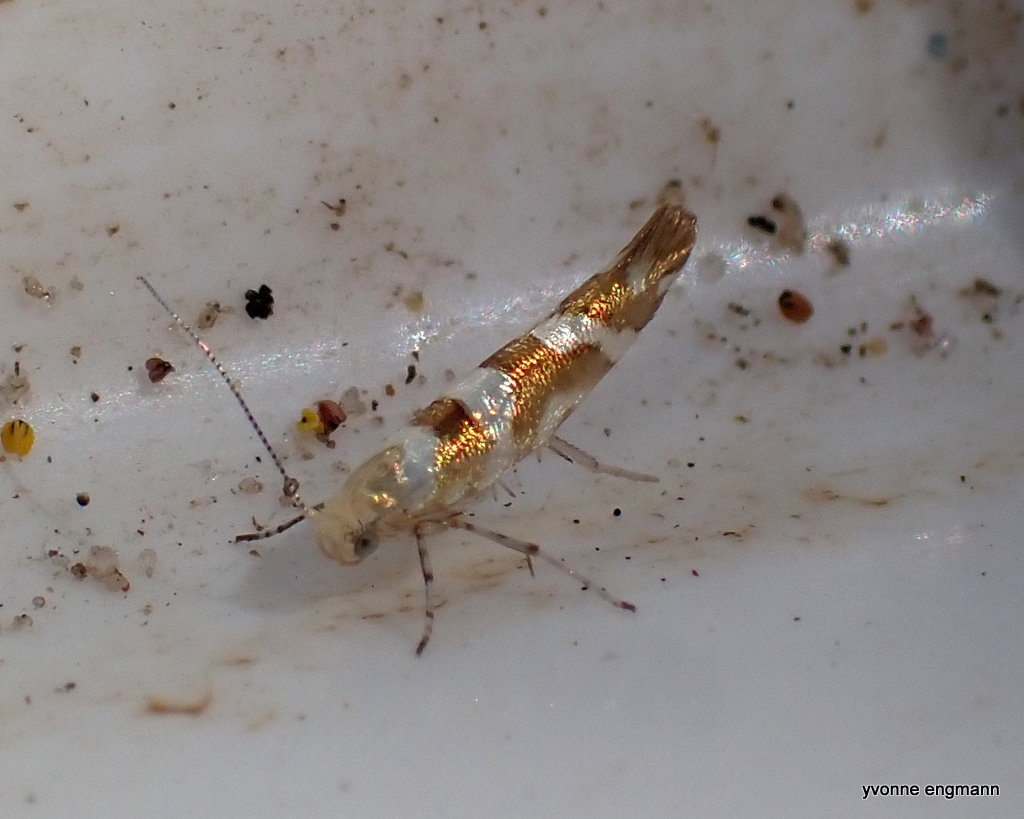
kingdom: Animalia
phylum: Arthropoda
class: Insecta
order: Lepidoptera
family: Argyresthiidae
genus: Argyresthia
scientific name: Argyresthia goedartella
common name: Golden argent
